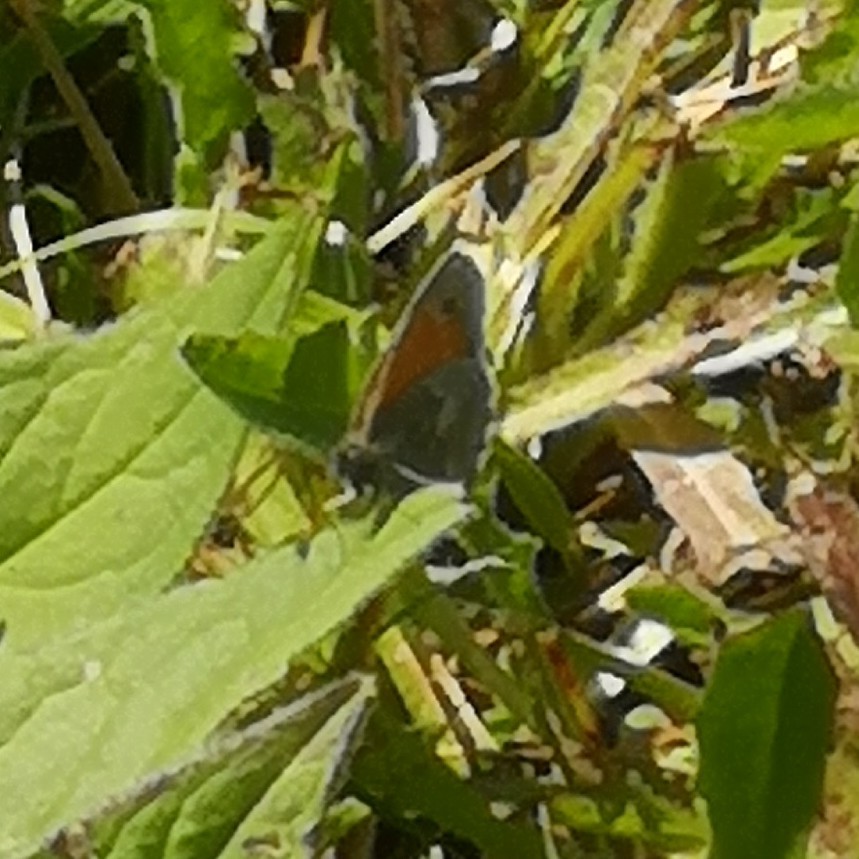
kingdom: Animalia
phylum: Arthropoda
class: Insecta
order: Lepidoptera
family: Nymphalidae
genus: Coenonympha
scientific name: Coenonympha pamphilus
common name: Small heath
